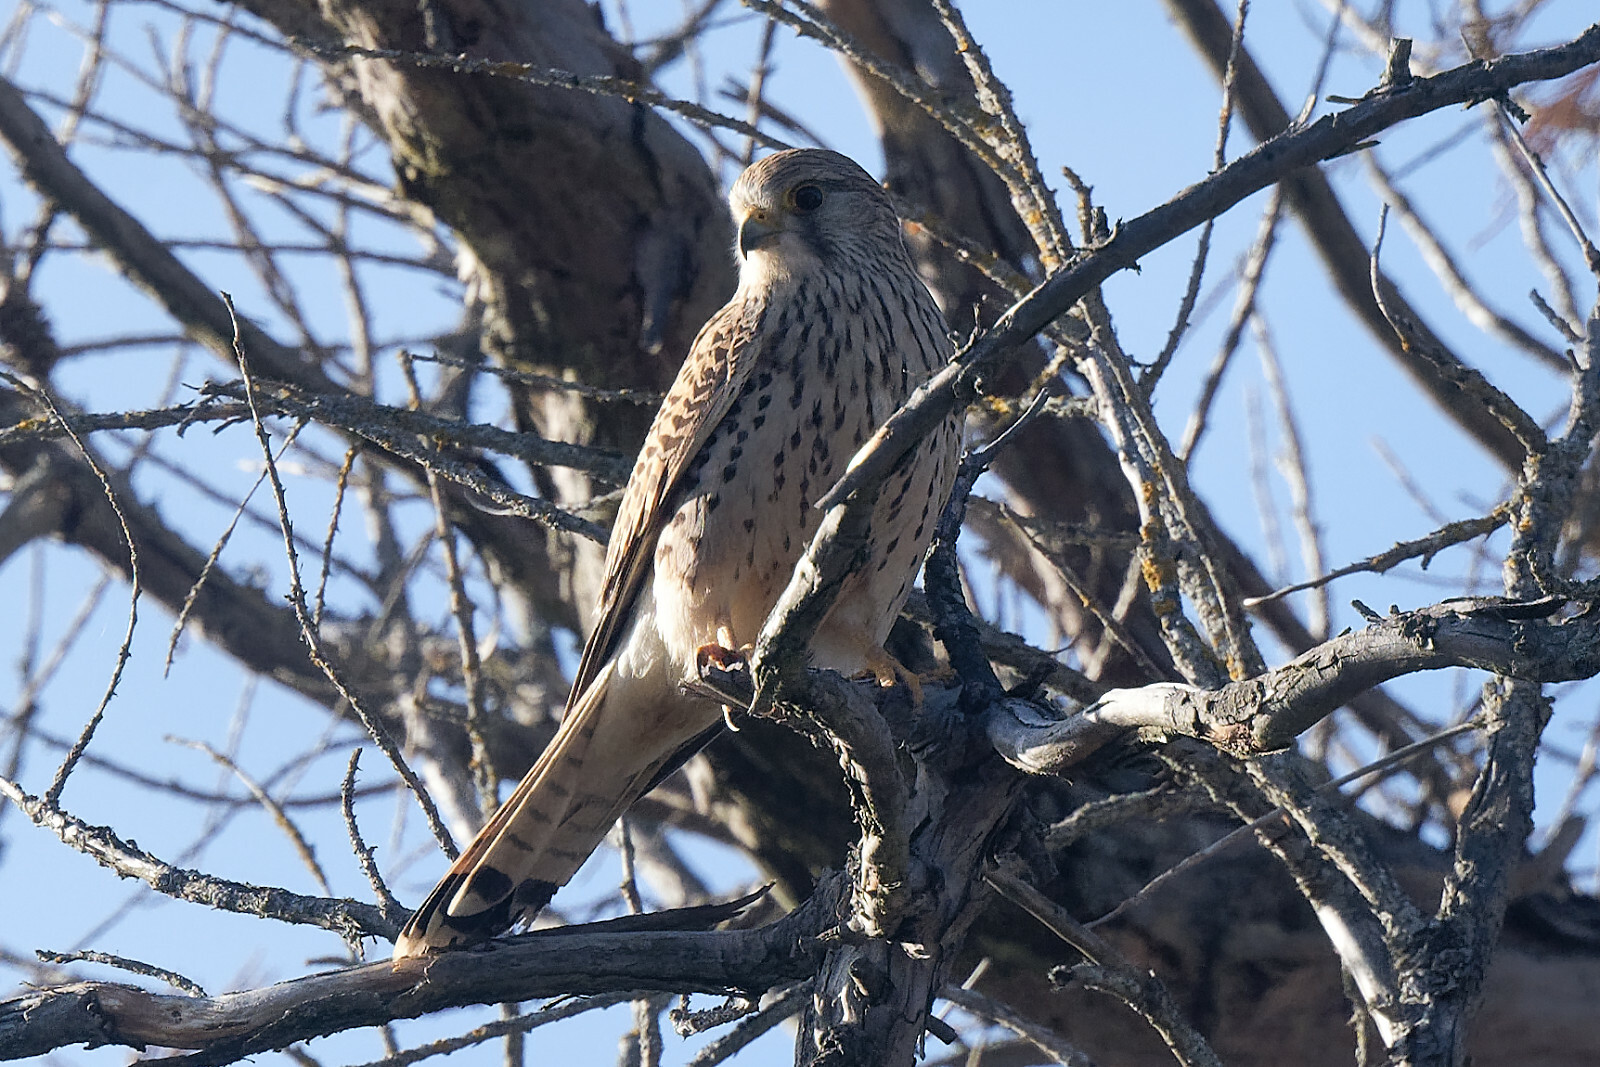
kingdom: Animalia
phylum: Chordata
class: Aves
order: Falconiformes
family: Falconidae
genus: Falco
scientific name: Falco tinnunculus
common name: Common kestrel
